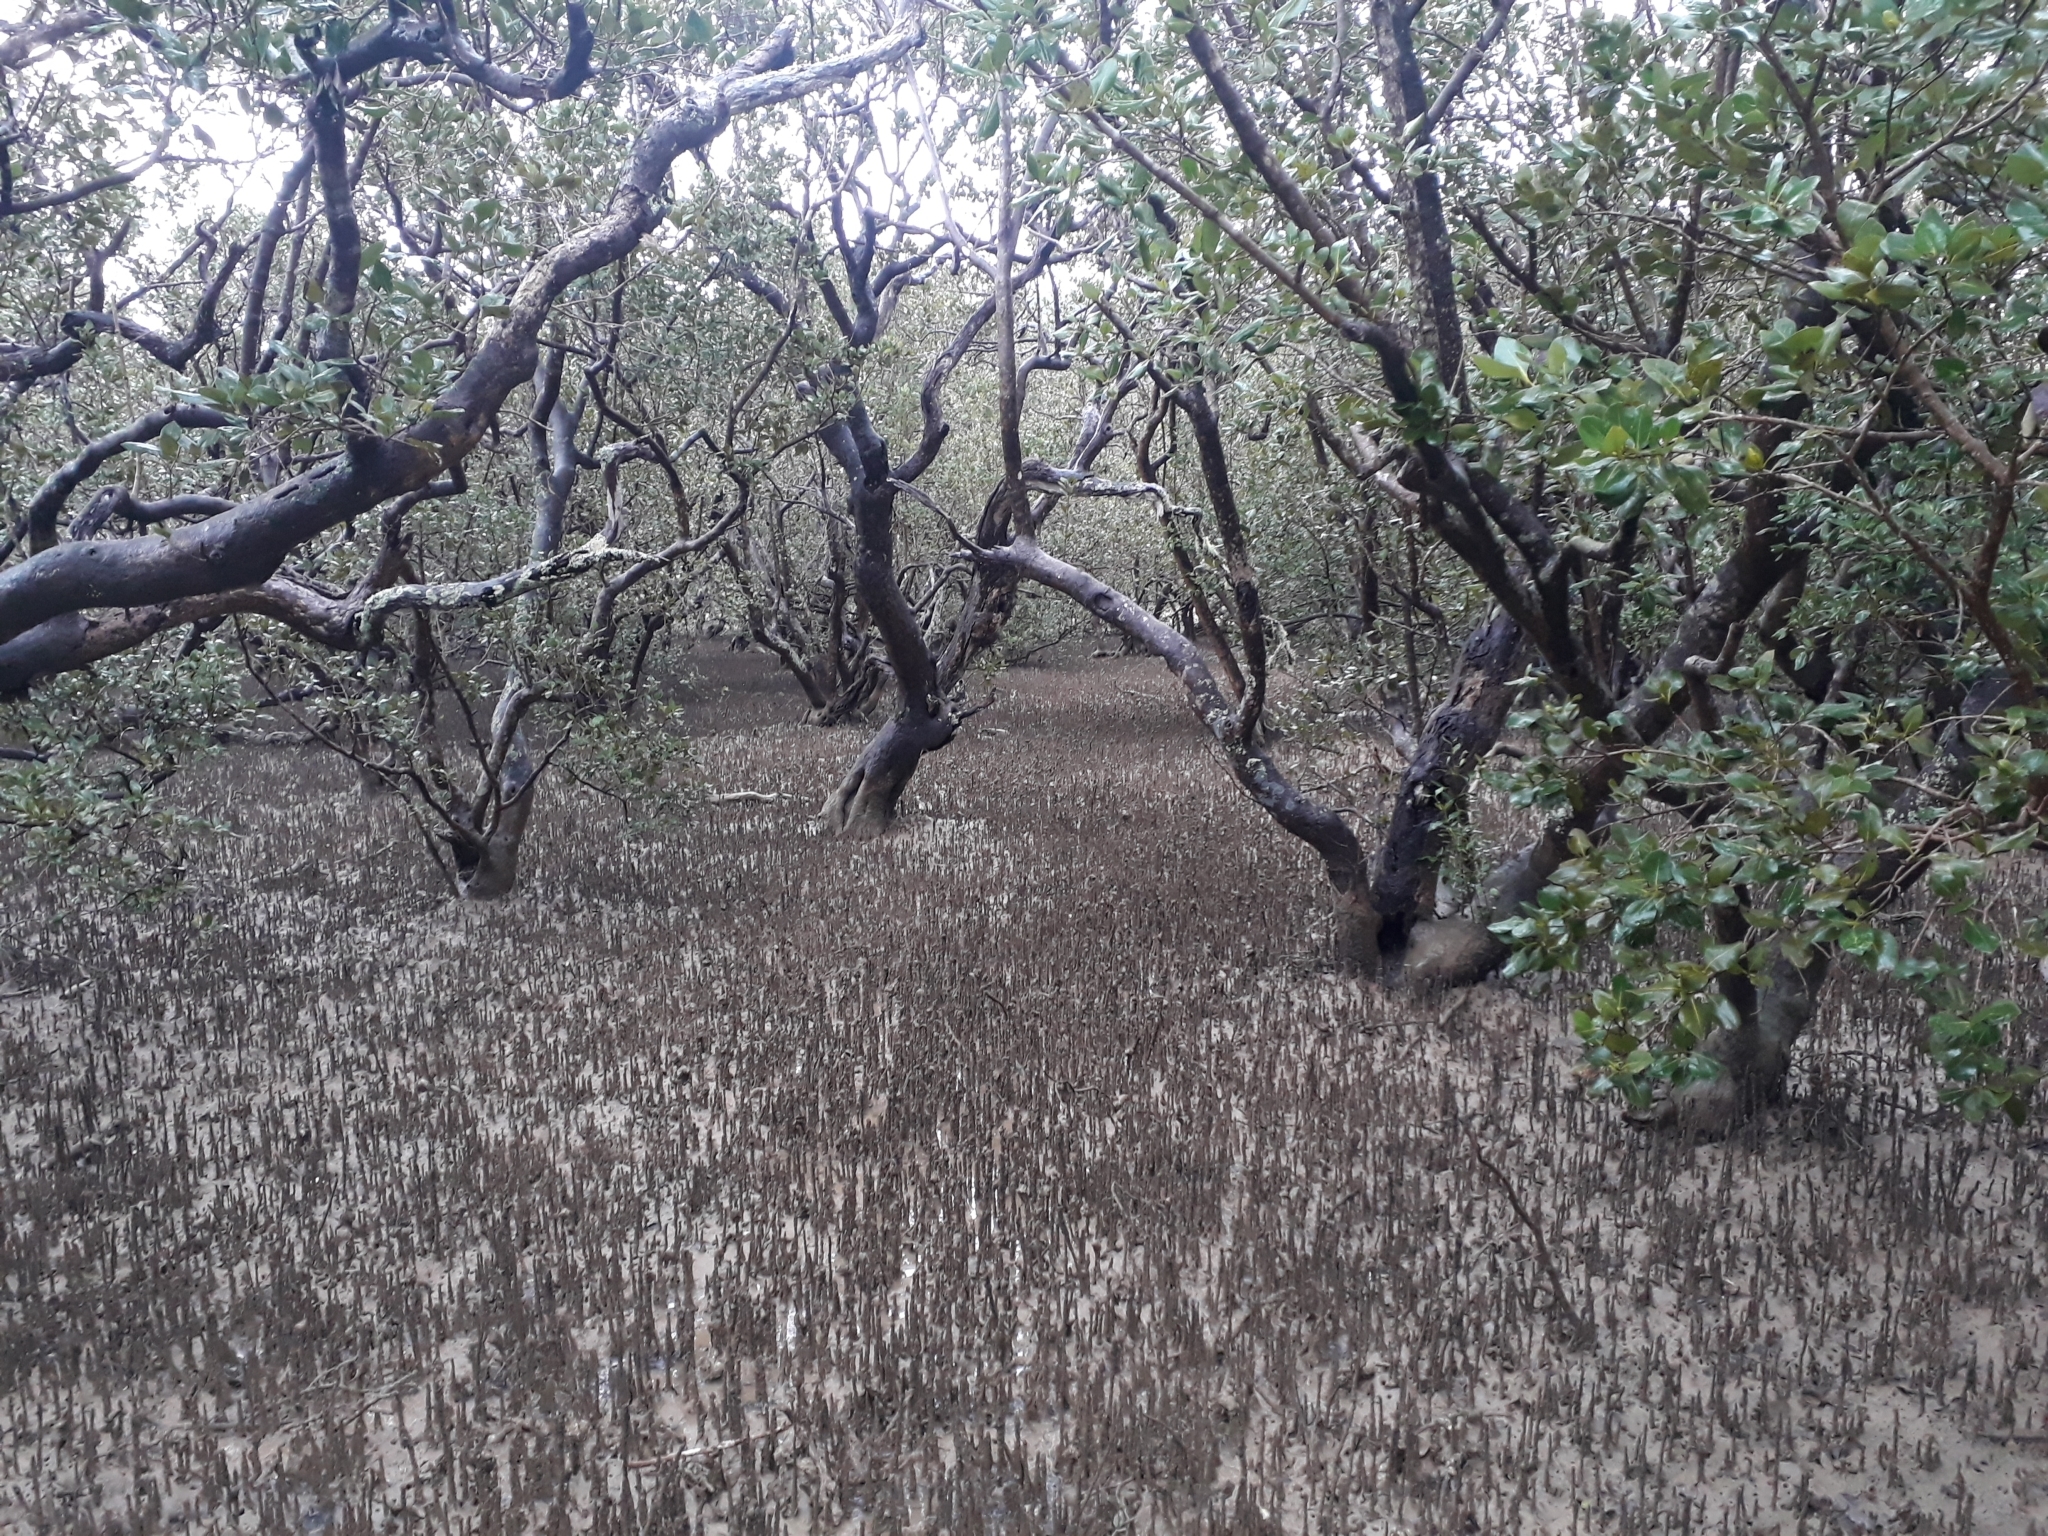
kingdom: Plantae
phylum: Tracheophyta
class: Magnoliopsida
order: Lamiales
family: Acanthaceae
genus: Avicennia
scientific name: Avicennia marina
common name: Gray mangrove
